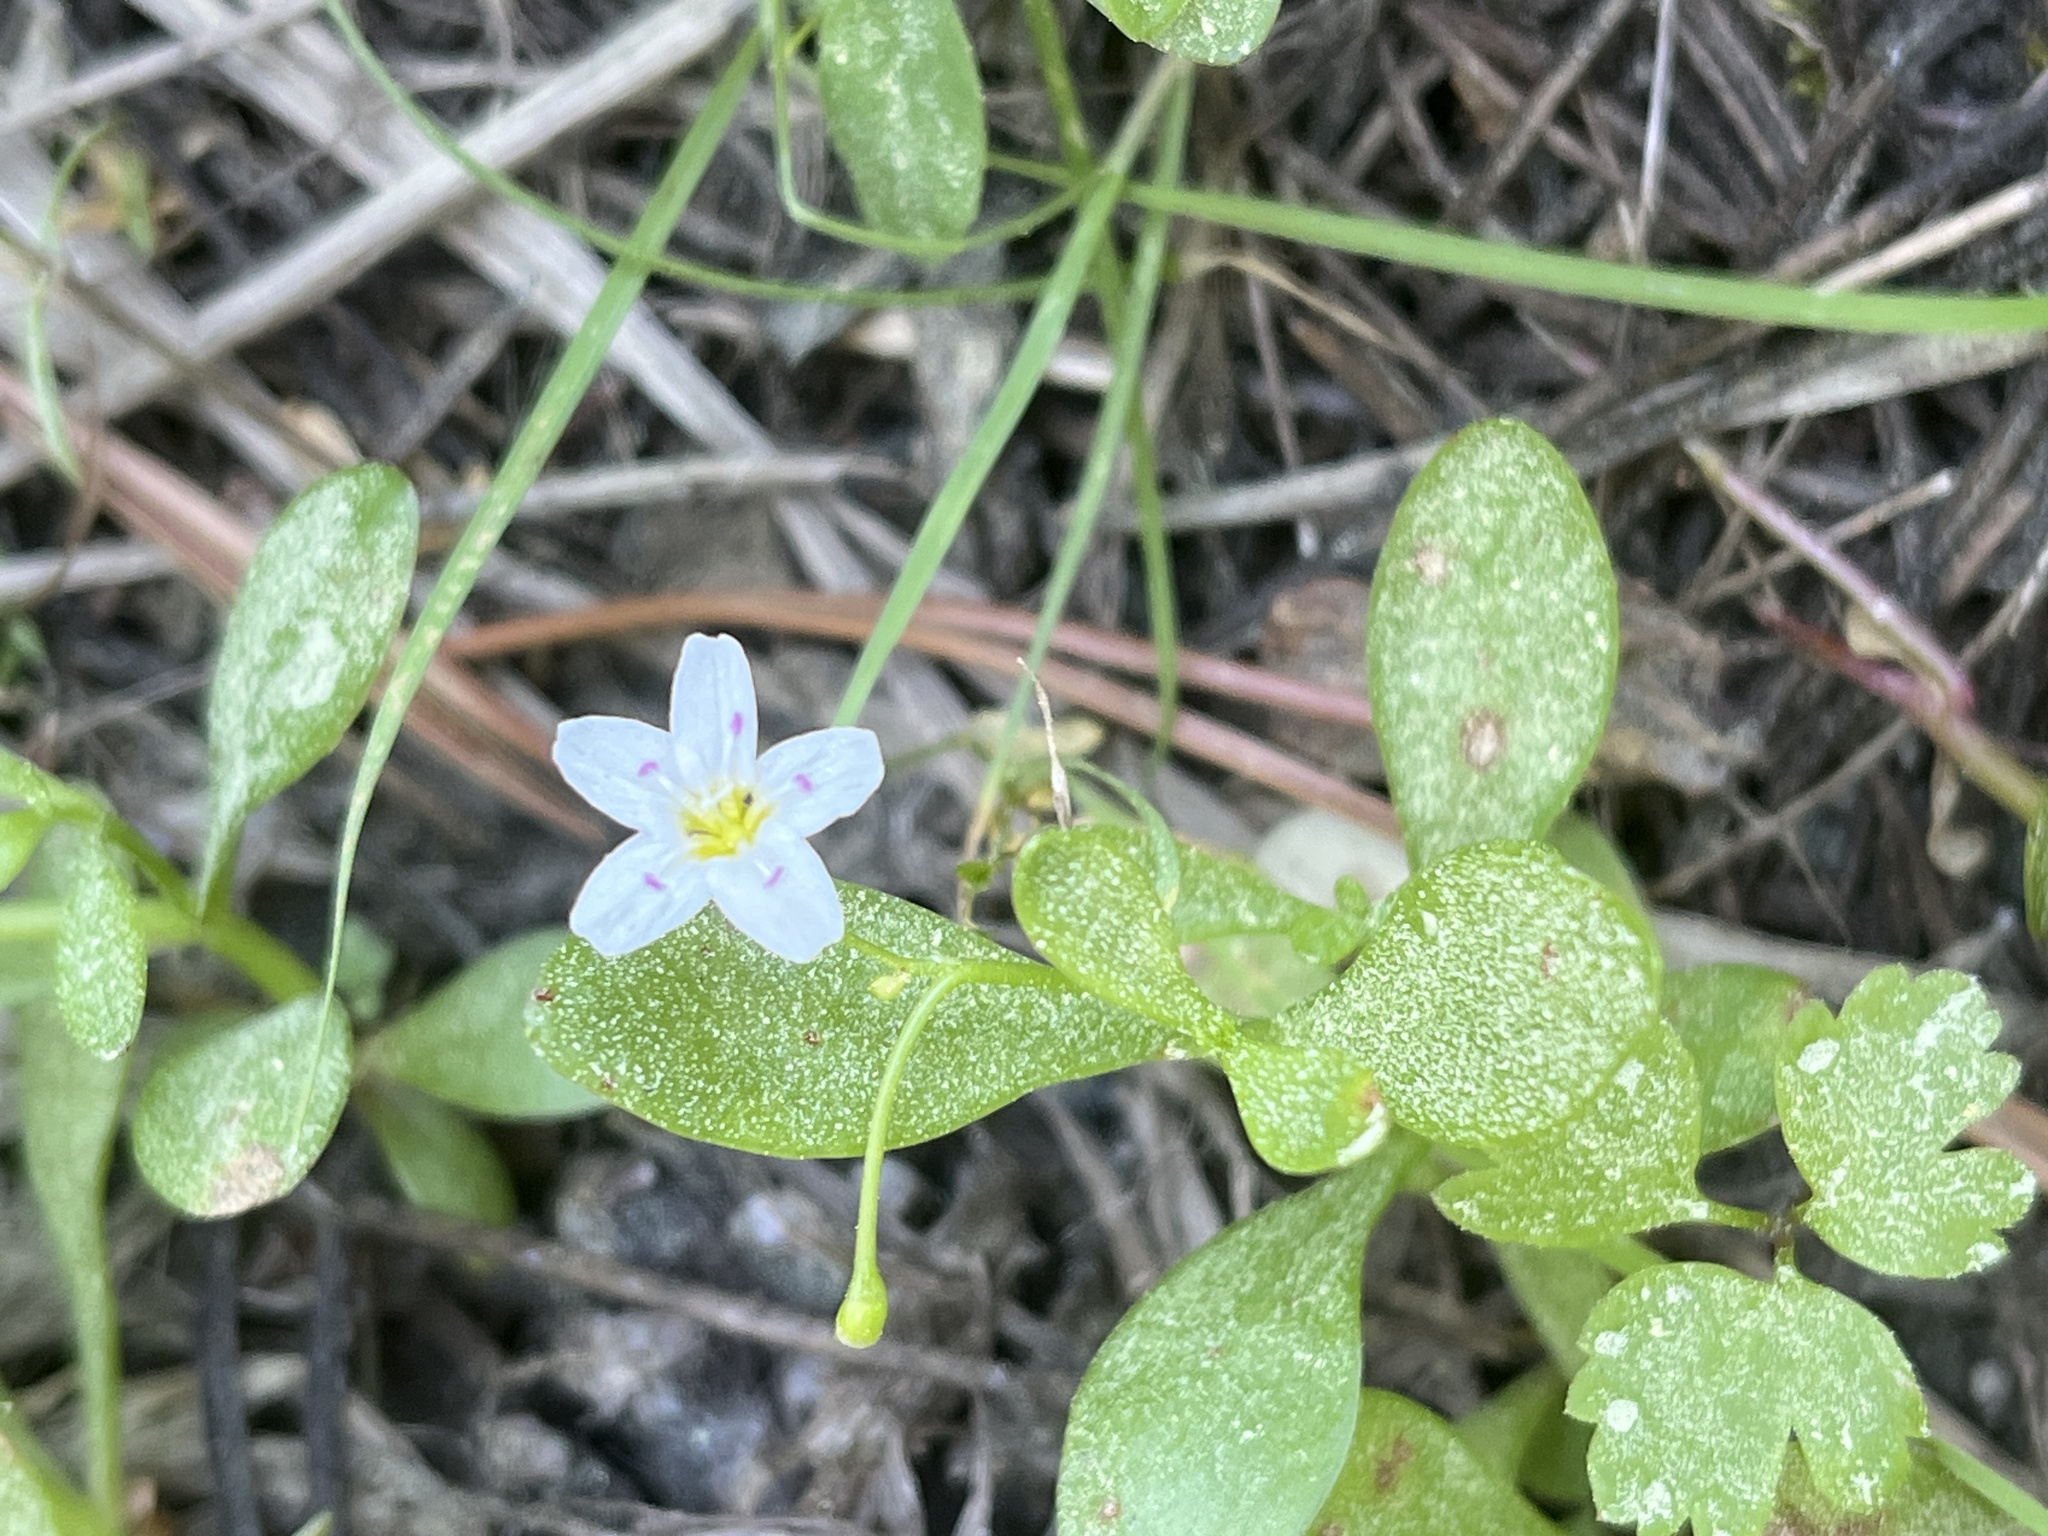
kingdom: Plantae
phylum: Tracheophyta
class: Magnoliopsida
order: Caryophyllales
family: Montiaceae
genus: Montia
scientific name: Montia chamissoi
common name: Chamisso's candyflower
